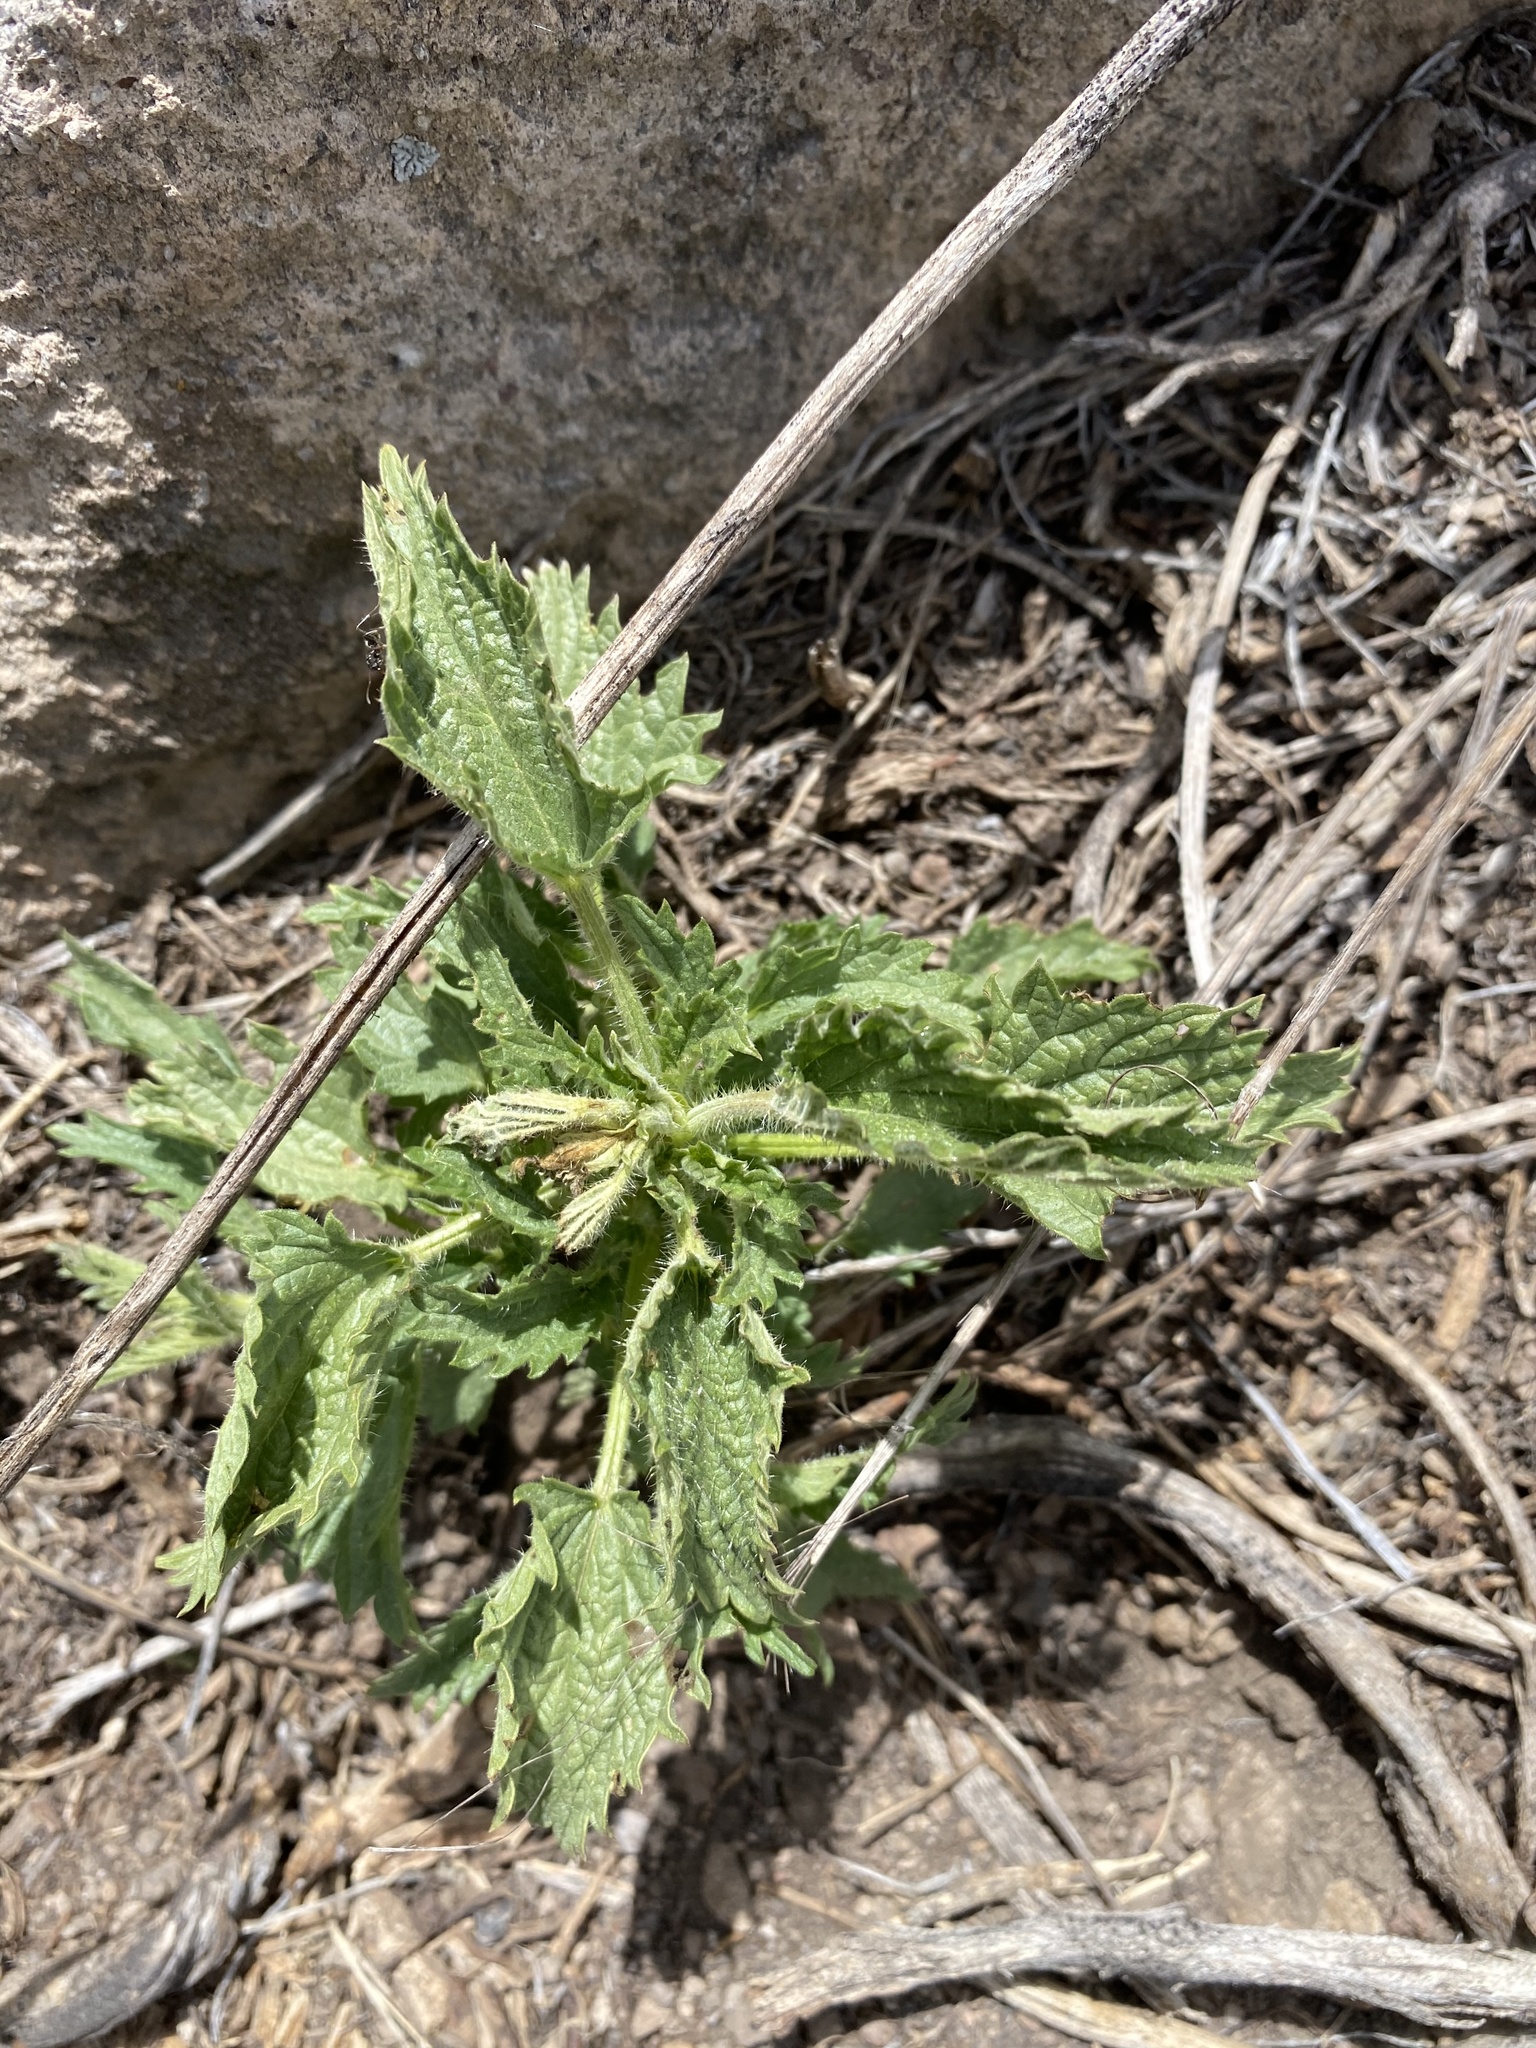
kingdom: Plantae
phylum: Tracheophyta
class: Magnoliopsida
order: Rosales
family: Urticaceae
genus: Urtica
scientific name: Urtica gracilis
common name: Slender stinging nettle
